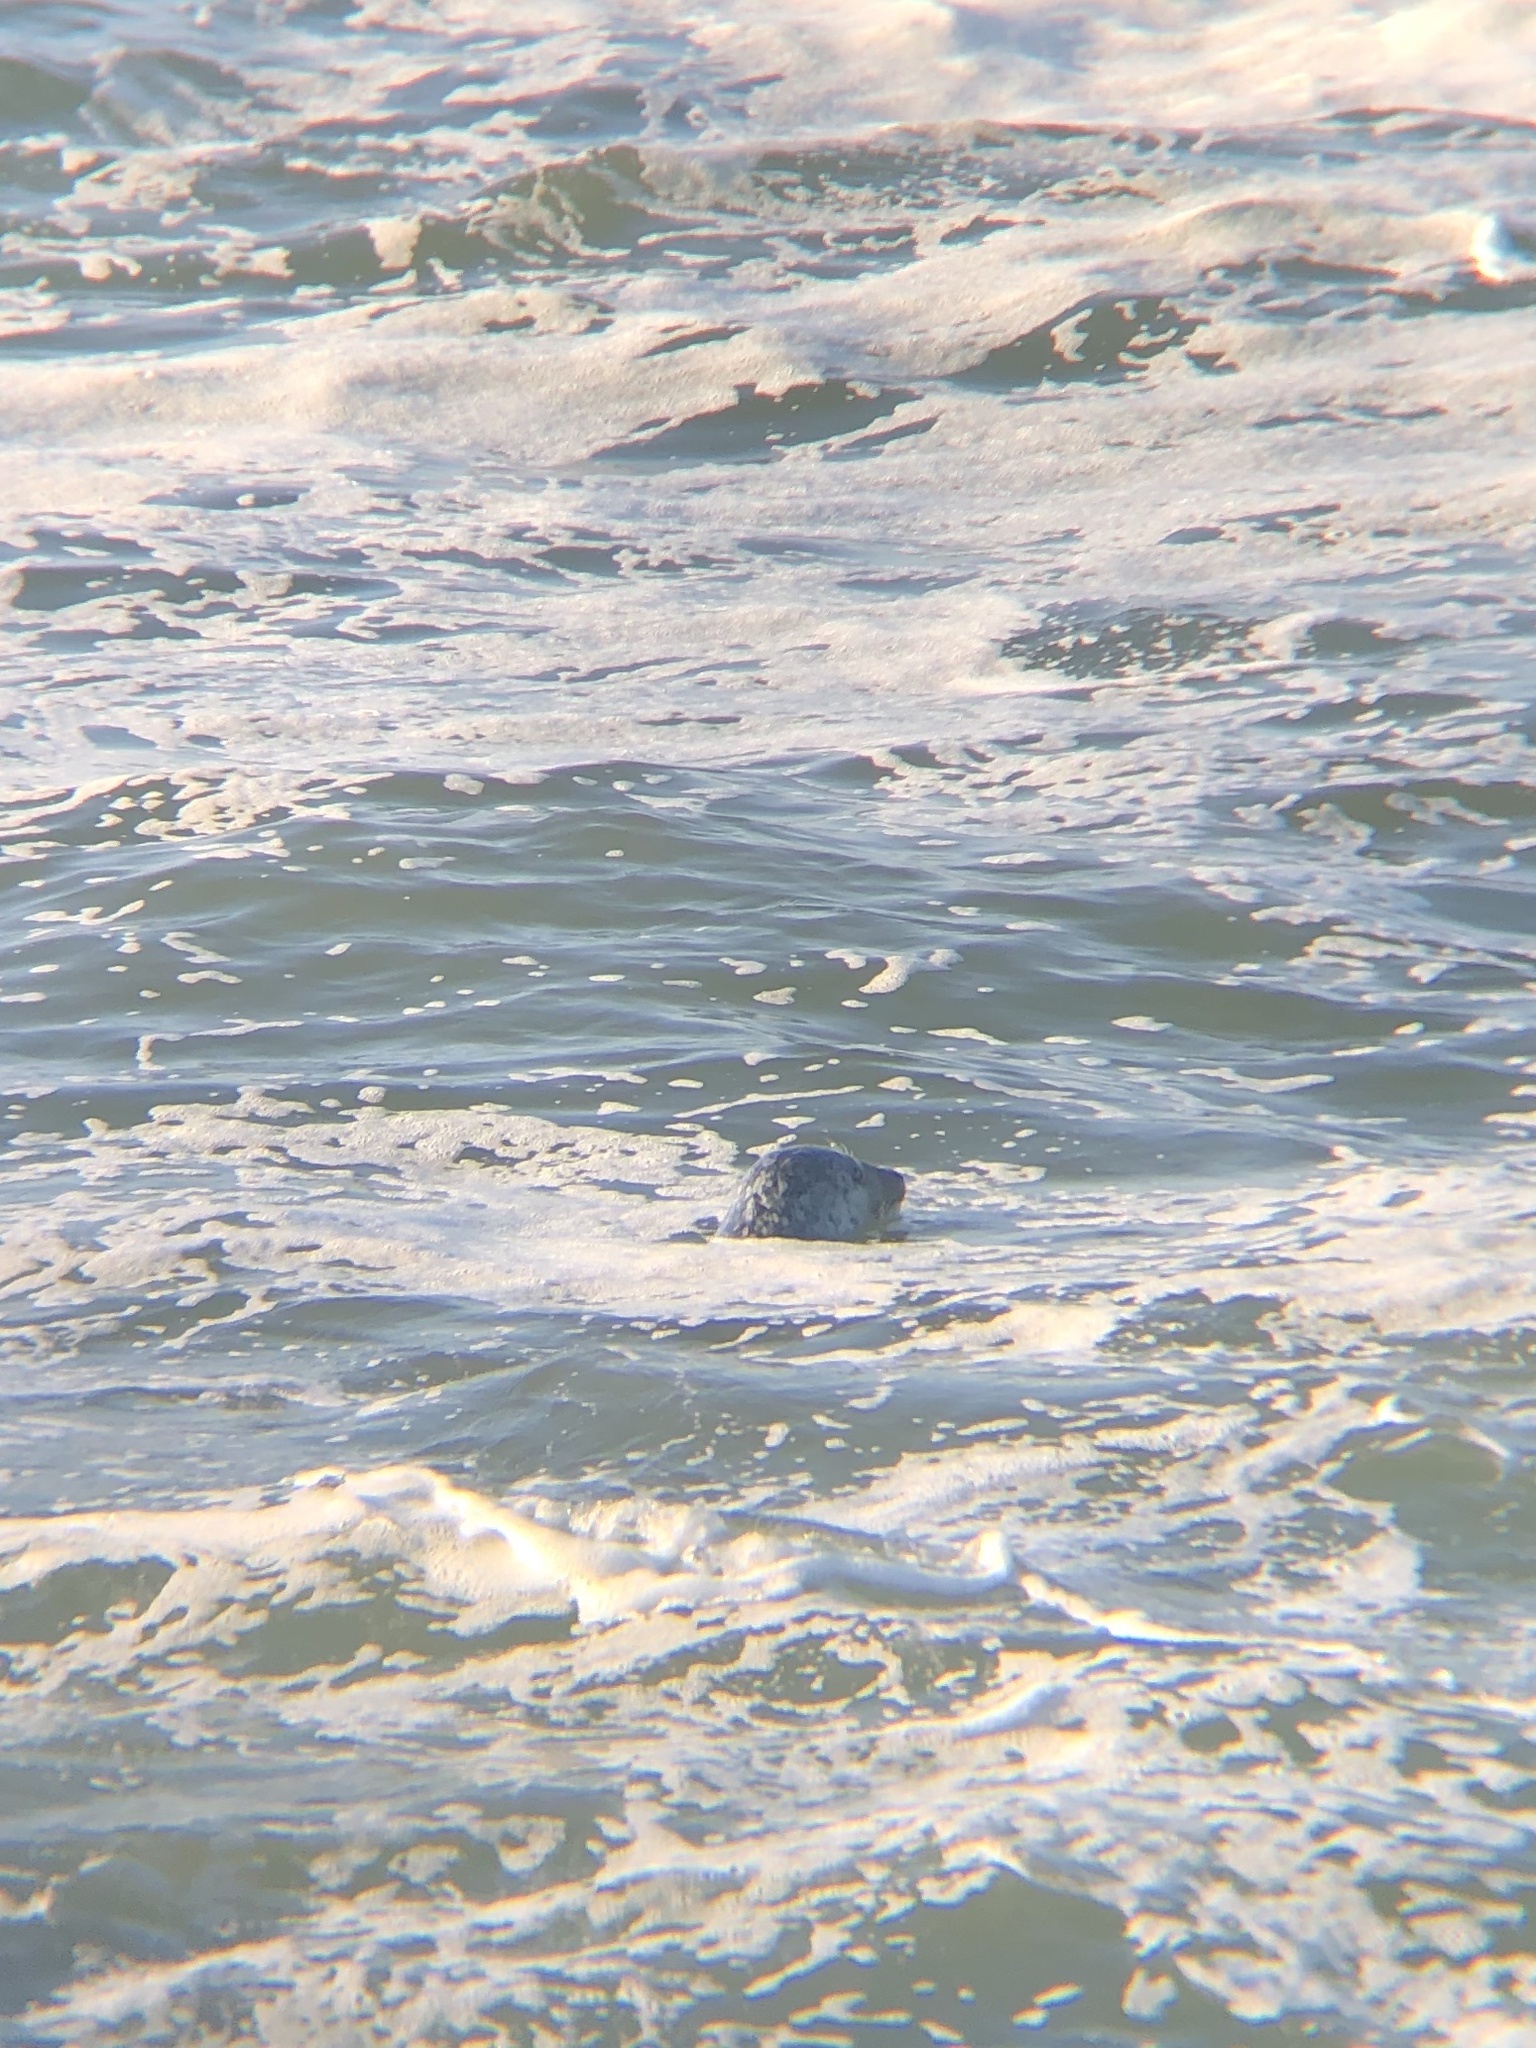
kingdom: Animalia
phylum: Chordata
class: Mammalia
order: Carnivora
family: Phocidae
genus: Phoca
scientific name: Phoca vitulina
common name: Harbor seal
